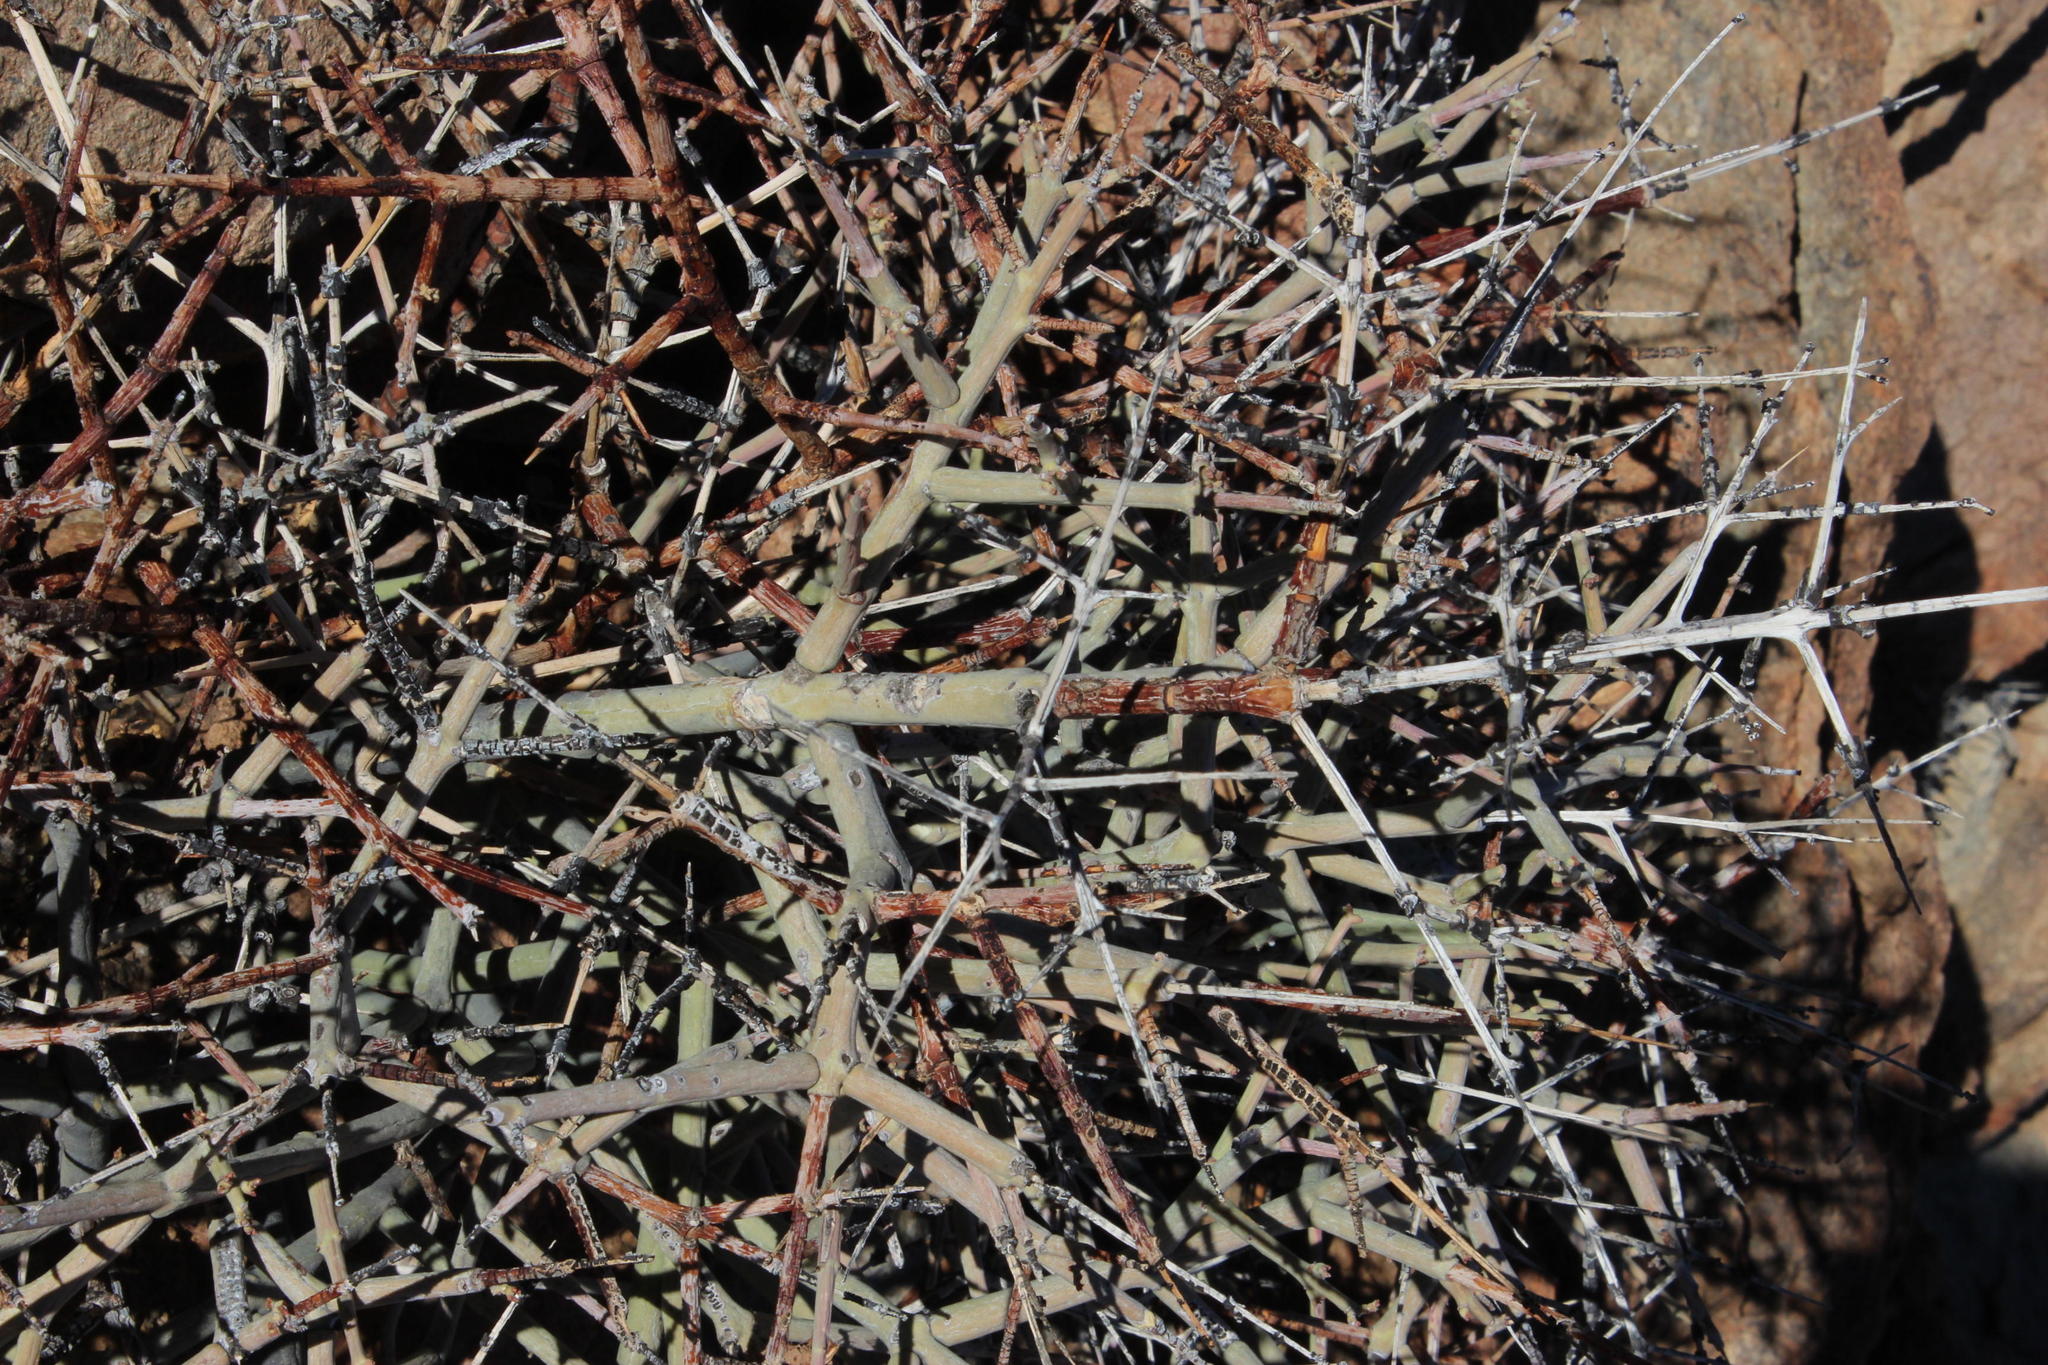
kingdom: Plantae
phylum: Tracheophyta
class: Magnoliopsida
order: Malpighiales
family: Euphorbiaceae
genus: Euphorbia
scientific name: Euphorbia spinea
